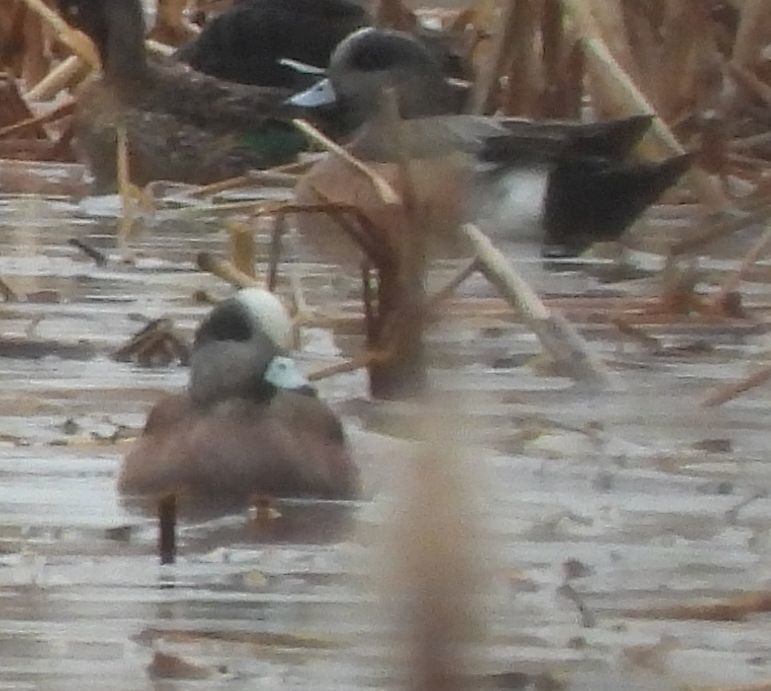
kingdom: Animalia
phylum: Chordata
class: Aves
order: Anseriformes
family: Anatidae
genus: Mareca
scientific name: Mareca americana
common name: American wigeon
